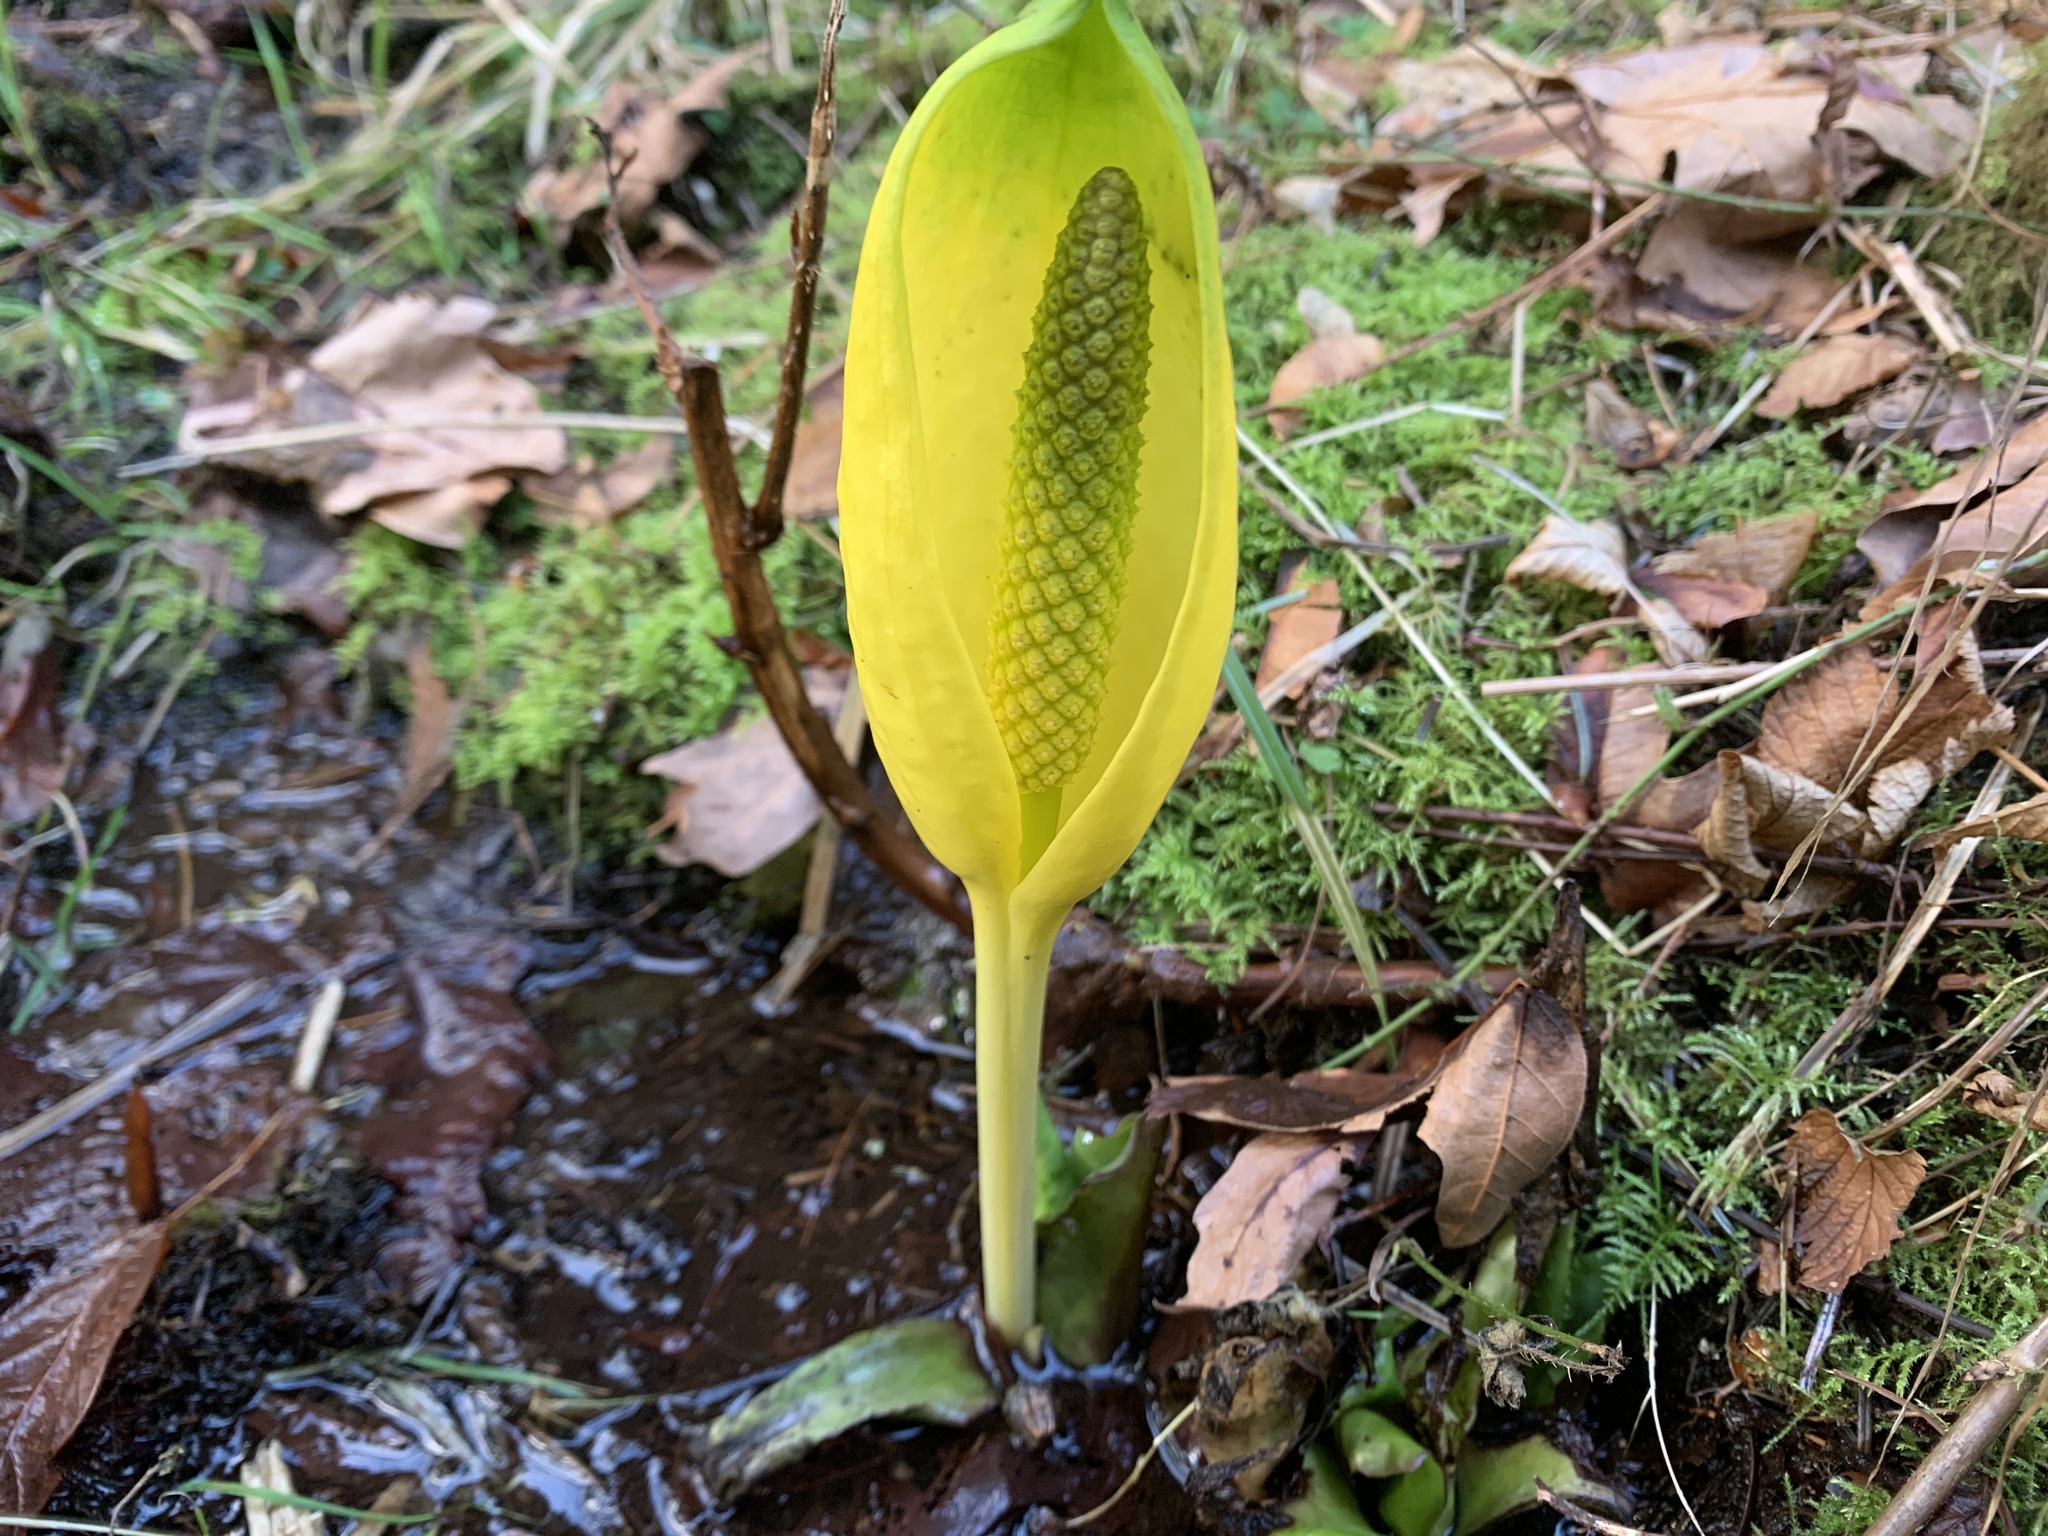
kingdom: Plantae
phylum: Tracheophyta
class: Liliopsida
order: Alismatales
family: Araceae
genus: Lysichiton
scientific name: Lysichiton americanus
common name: American skunk cabbage
